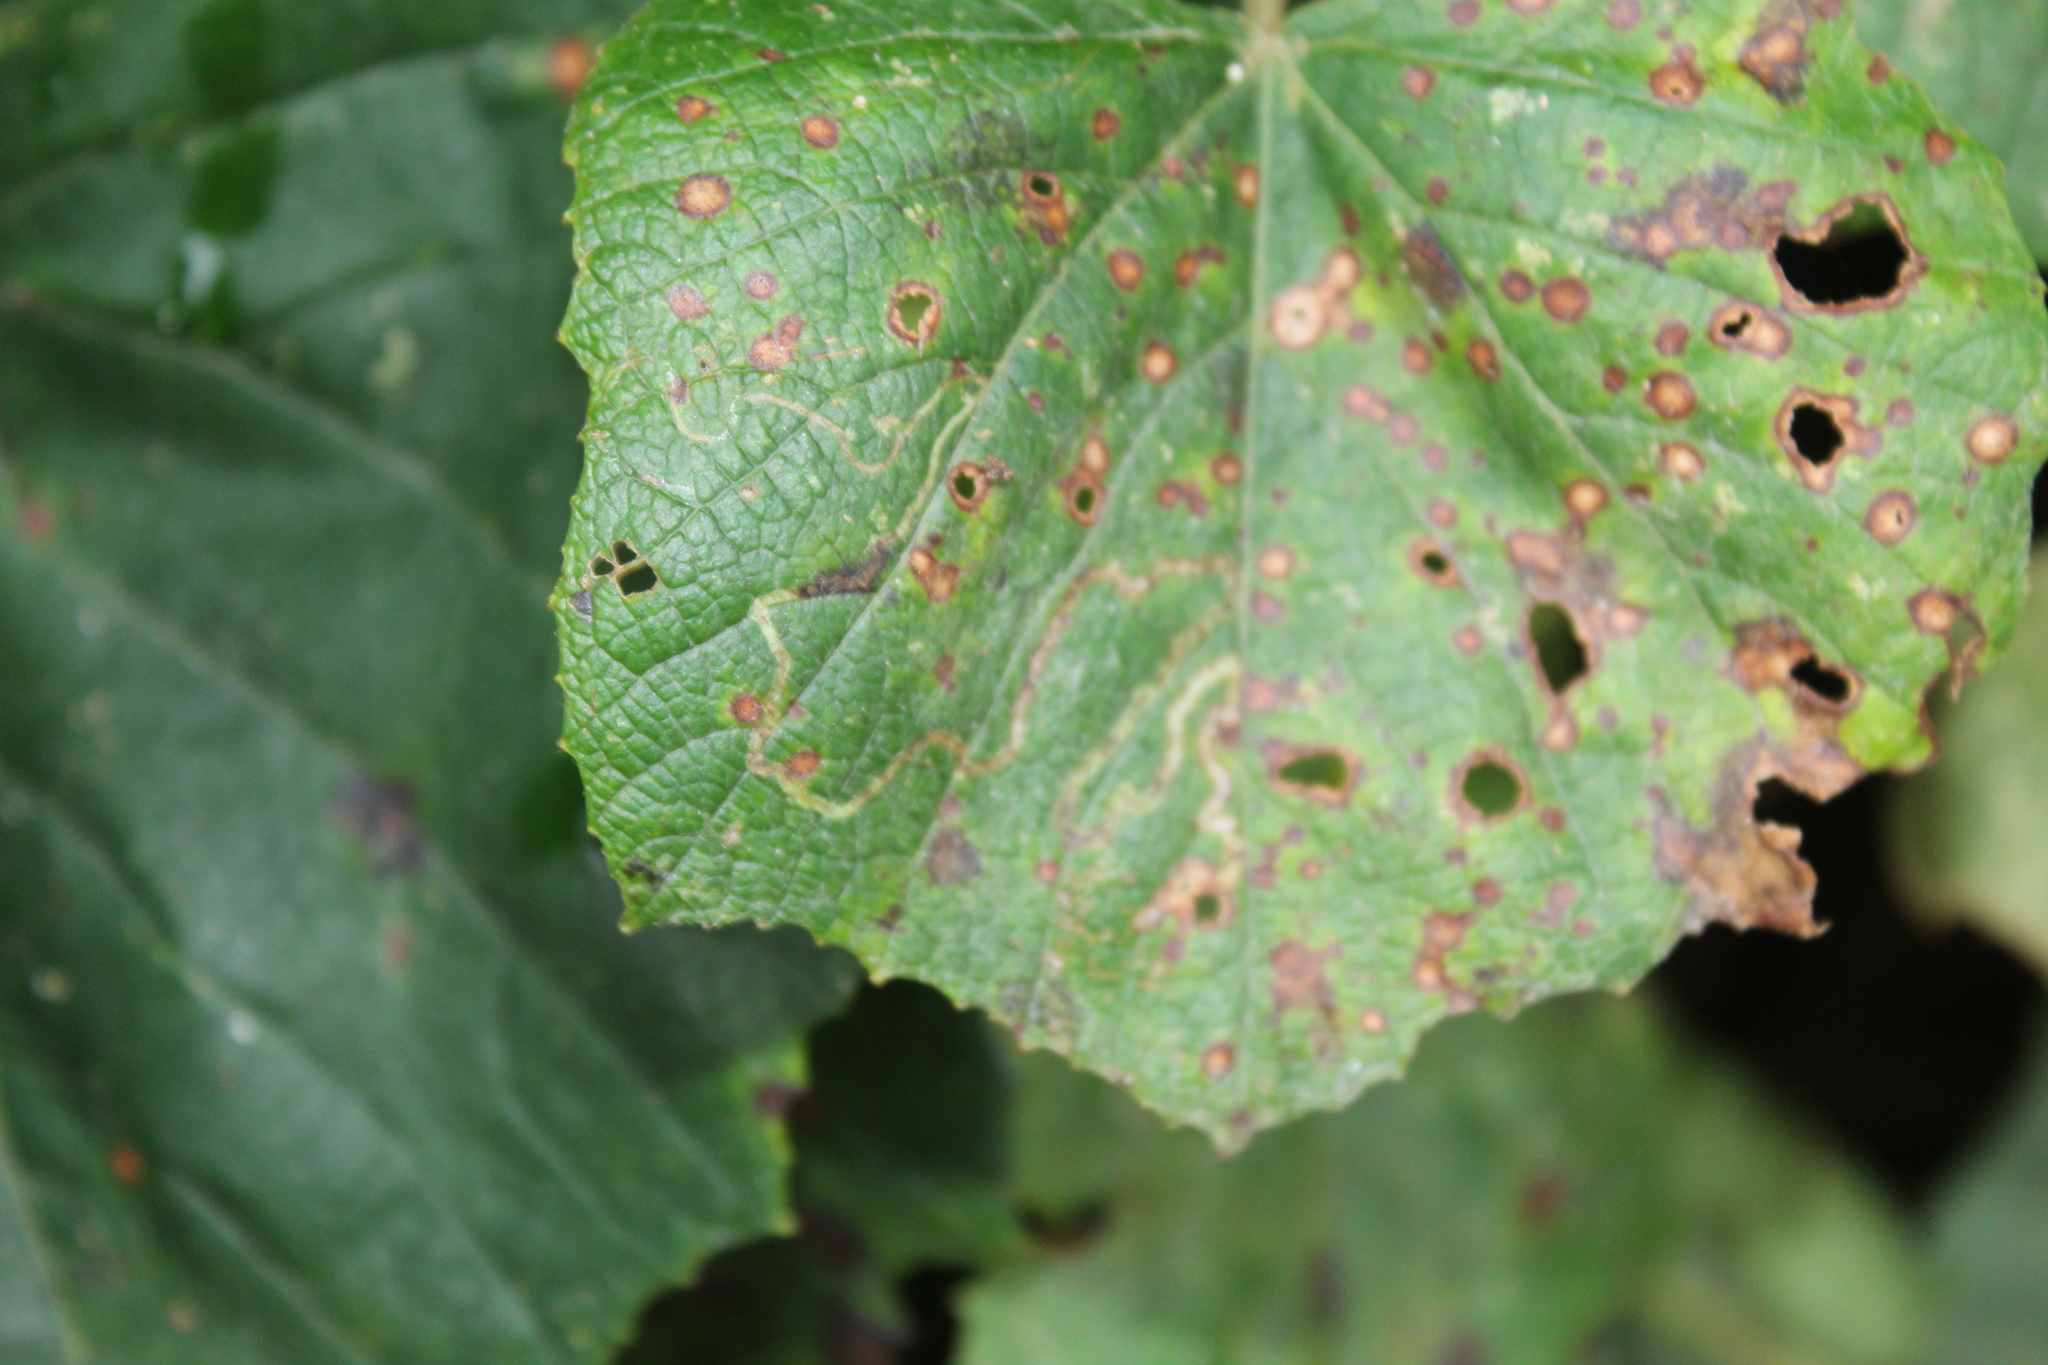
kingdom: Animalia
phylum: Arthropoda
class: Insecta
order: Lepidoptera
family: Gracillariidae
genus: Phyllocnistis
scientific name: Phyllocnistis vitifoliella
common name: Grape leaf-miner moth
